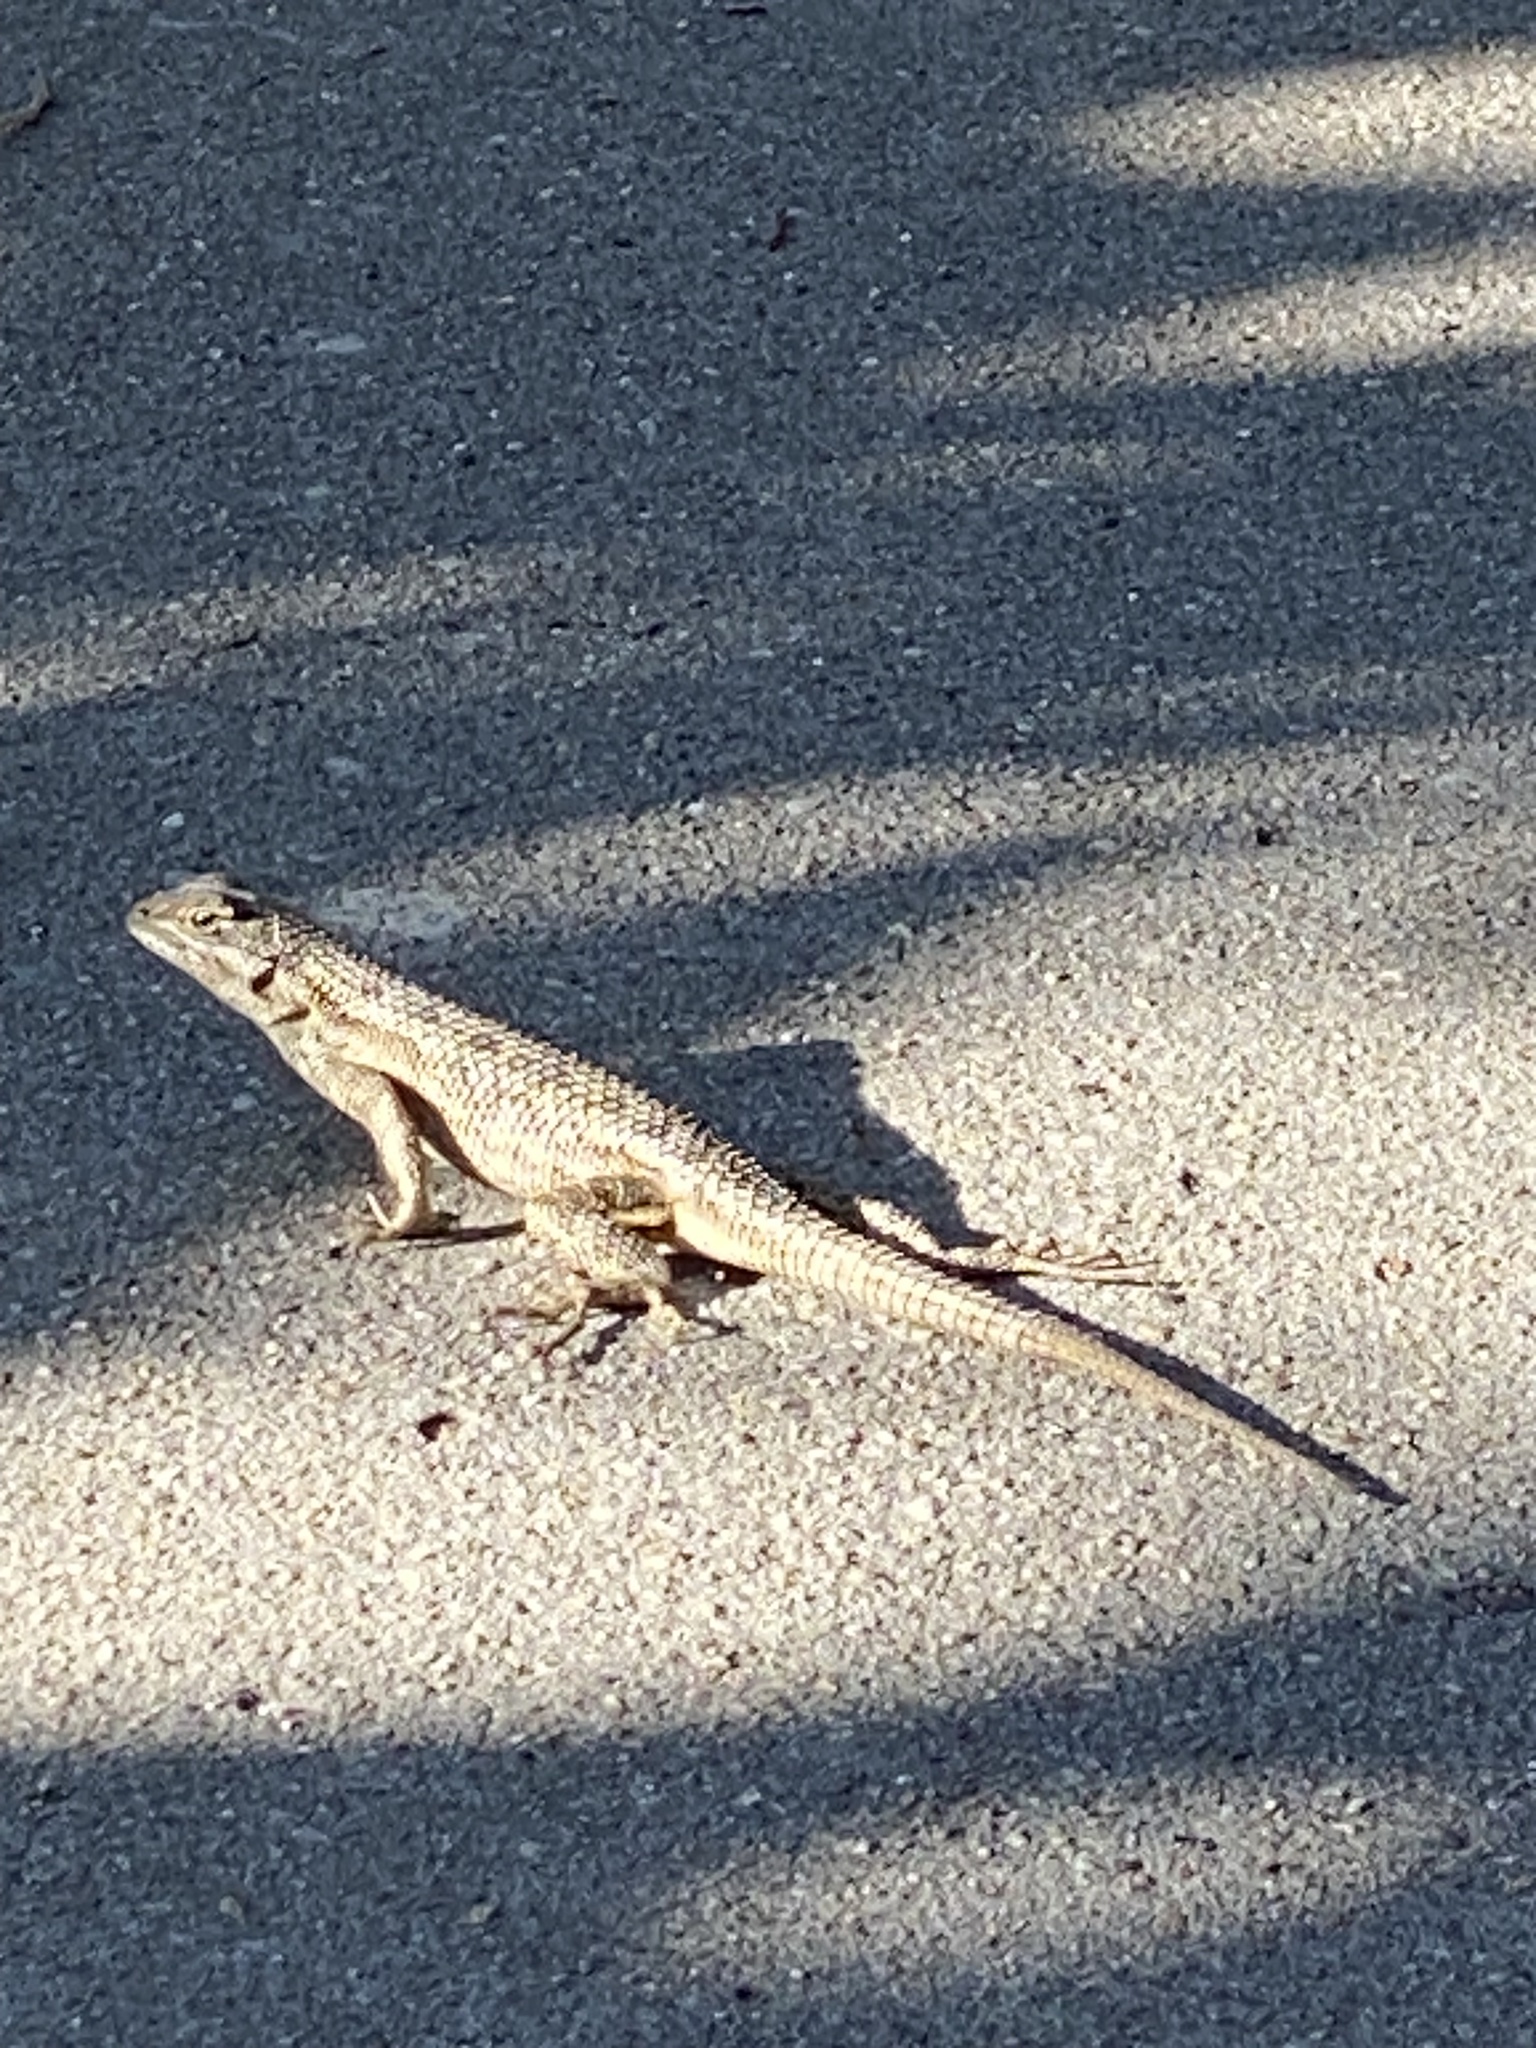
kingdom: Animalia
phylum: Chordata
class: Squamata
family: Phrynosomatidae
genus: Sceloporus
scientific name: Sceloporus occidentalis
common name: Western fence lizard
